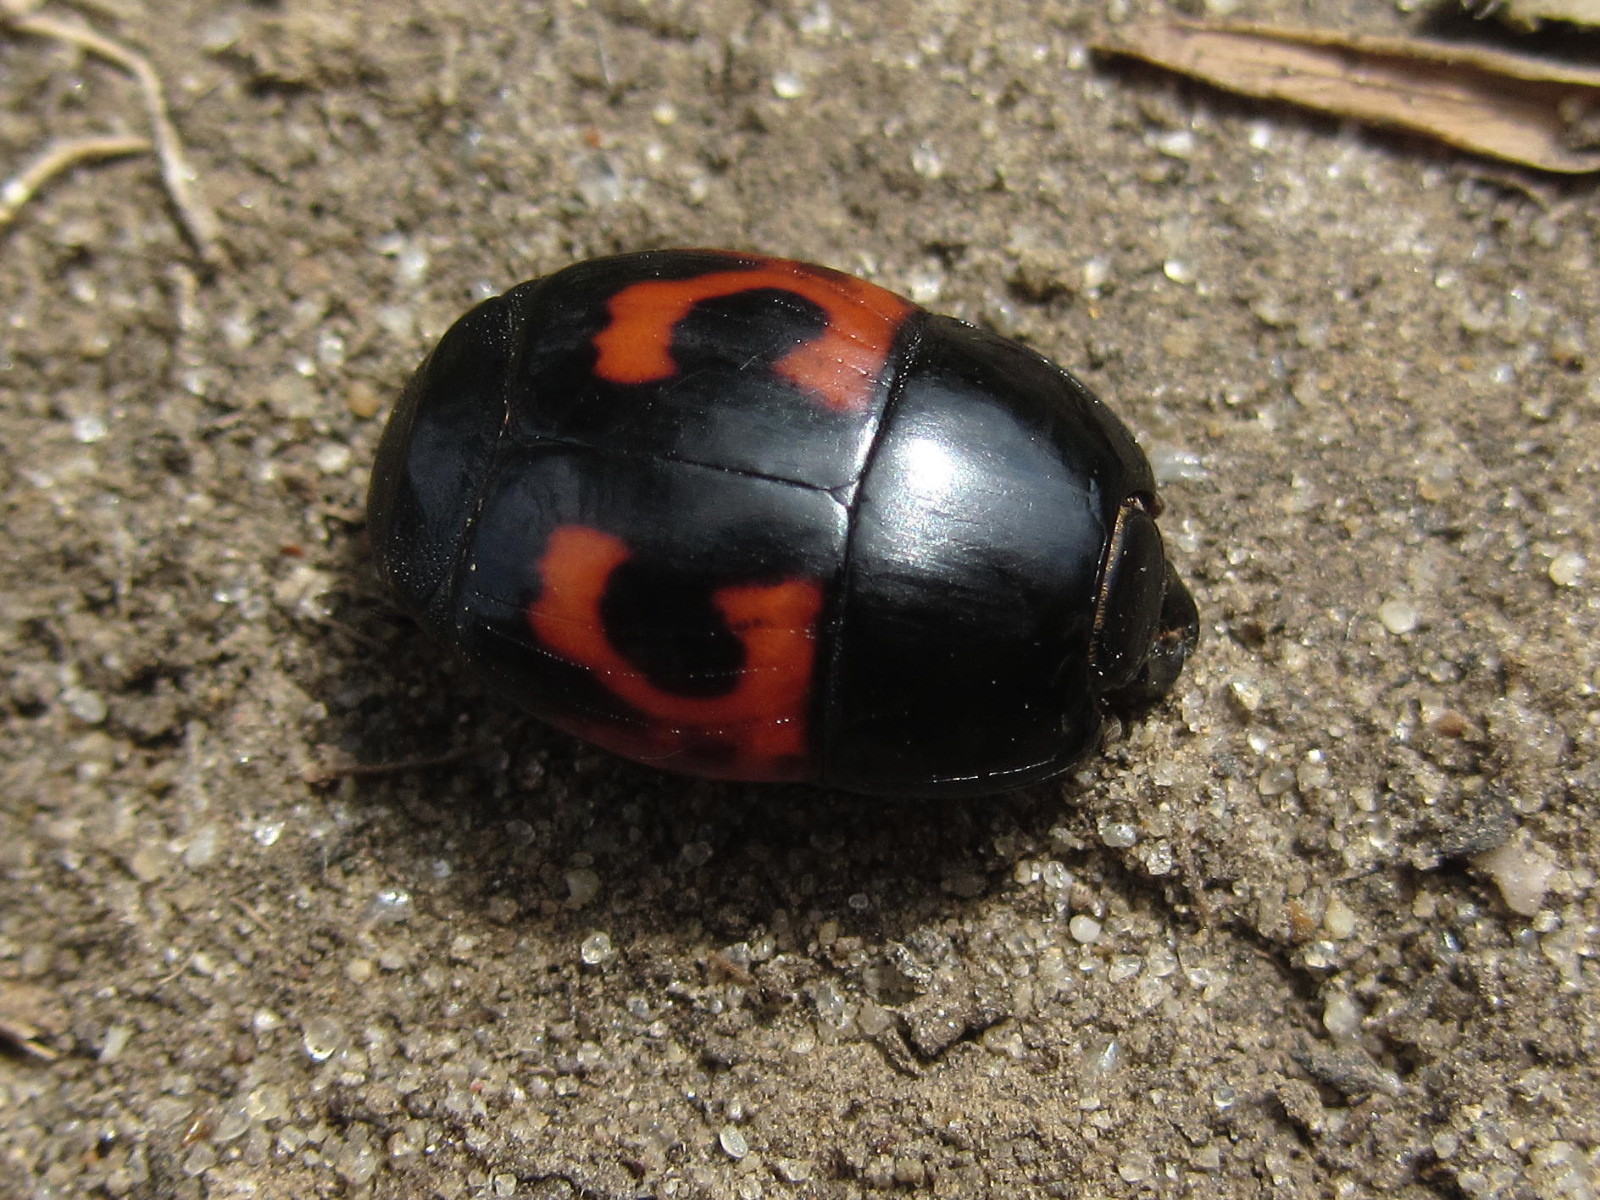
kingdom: Animalia
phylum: Arthropoda
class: Insecta
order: Coleoptera
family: Histeridae
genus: Hister
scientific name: Hister quadrimaculatus
